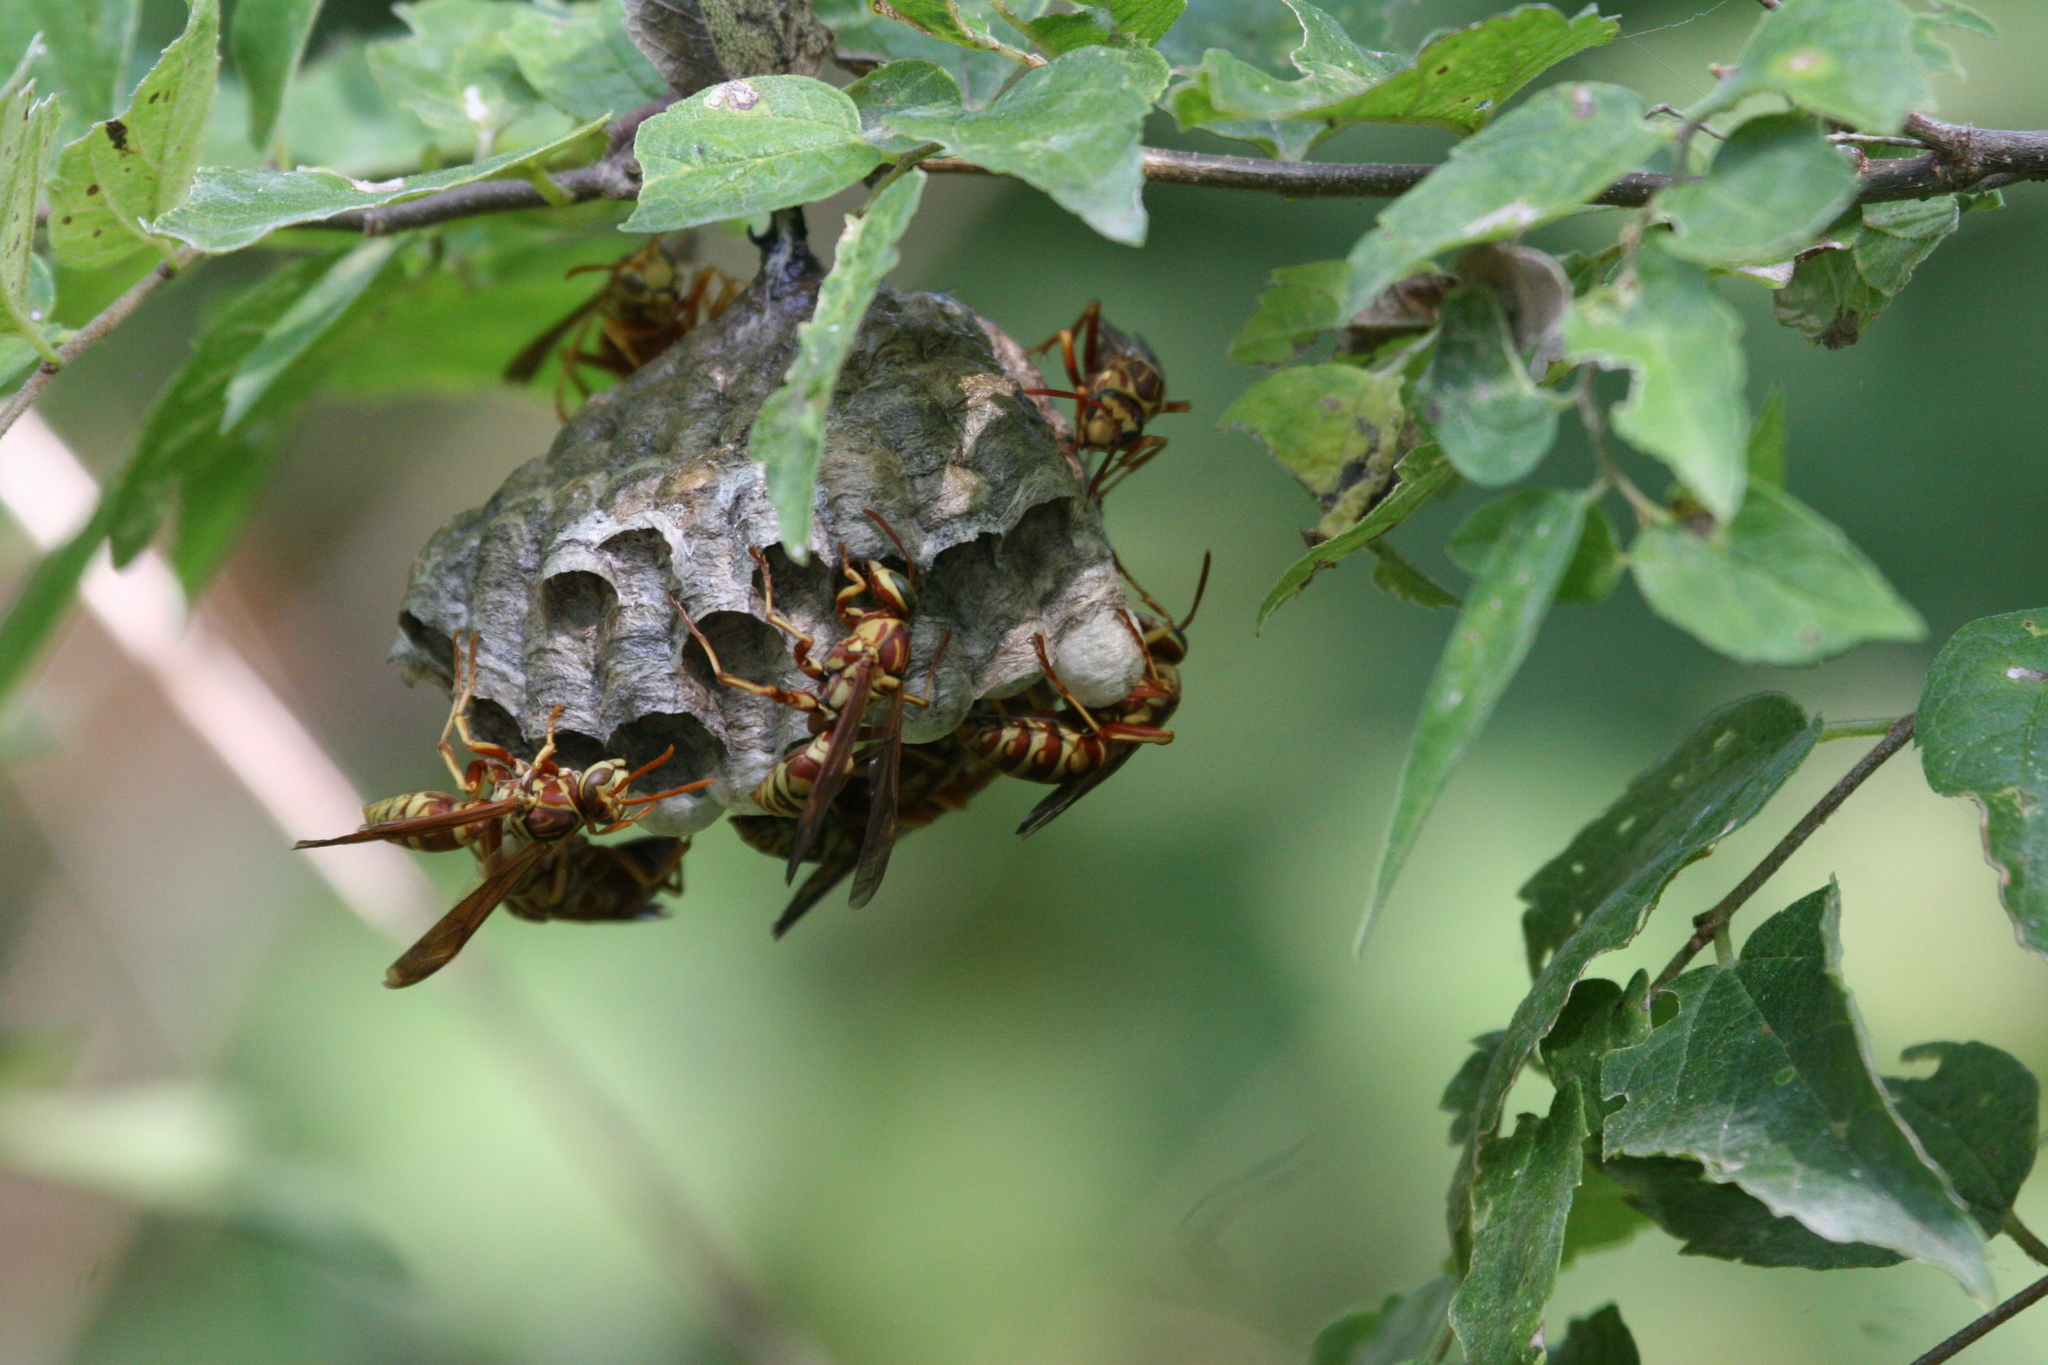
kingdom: Animalia
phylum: Arthropoda
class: Insecta
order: Hymenoptera
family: Eumenidae
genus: Polistes
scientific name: Polistes apachus
